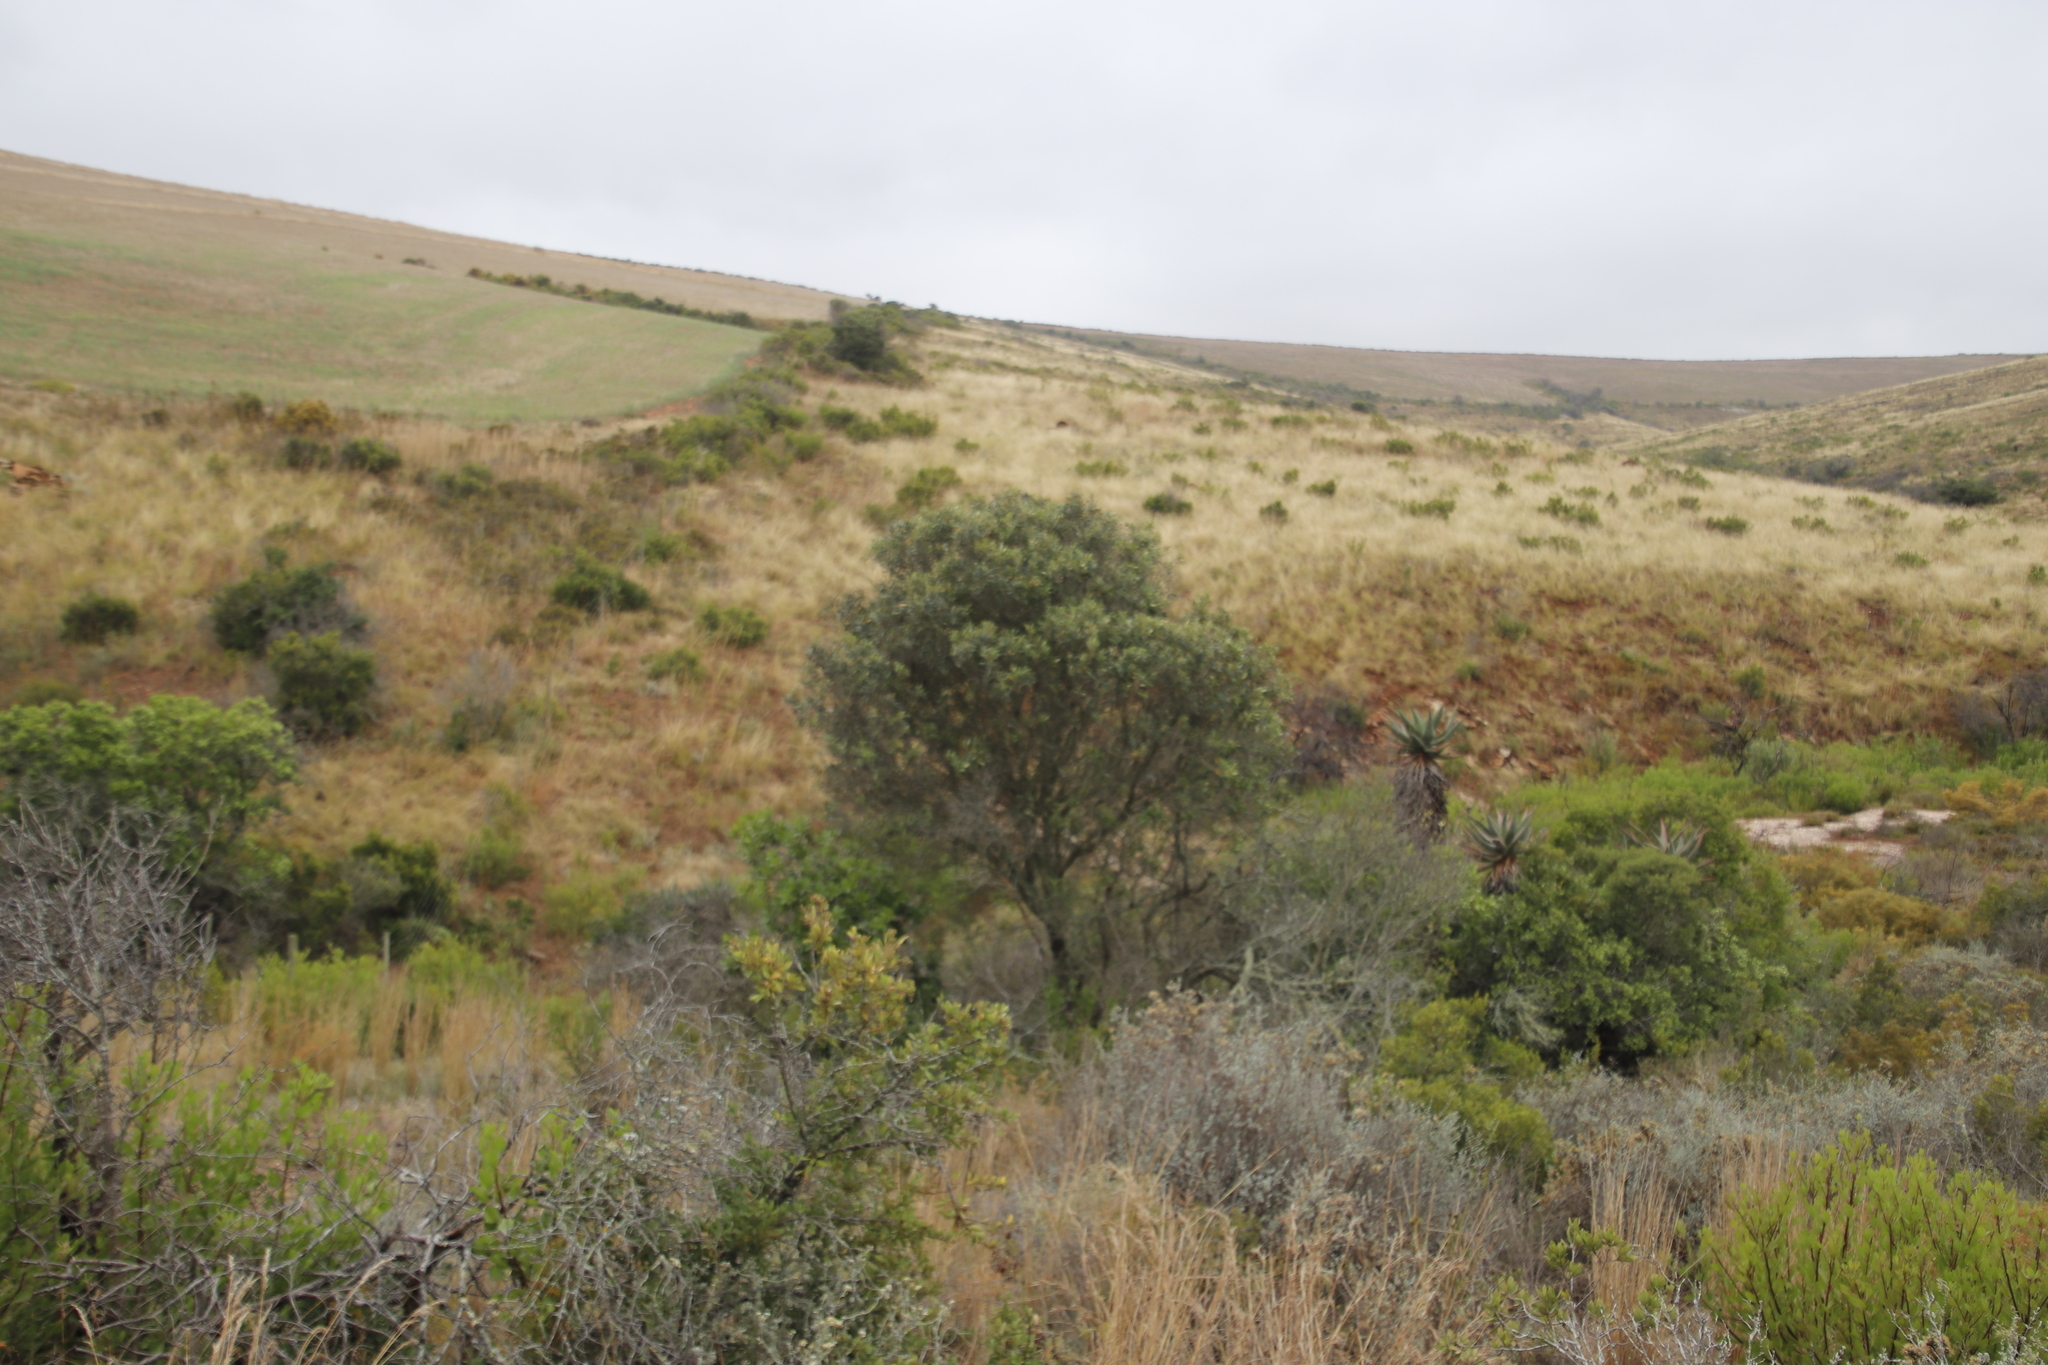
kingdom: Plantae
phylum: Tracheophyta
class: Magnoliopsida
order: Lamiales
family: Oleaceae
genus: Olea
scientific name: Olea europaea
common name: Olive
